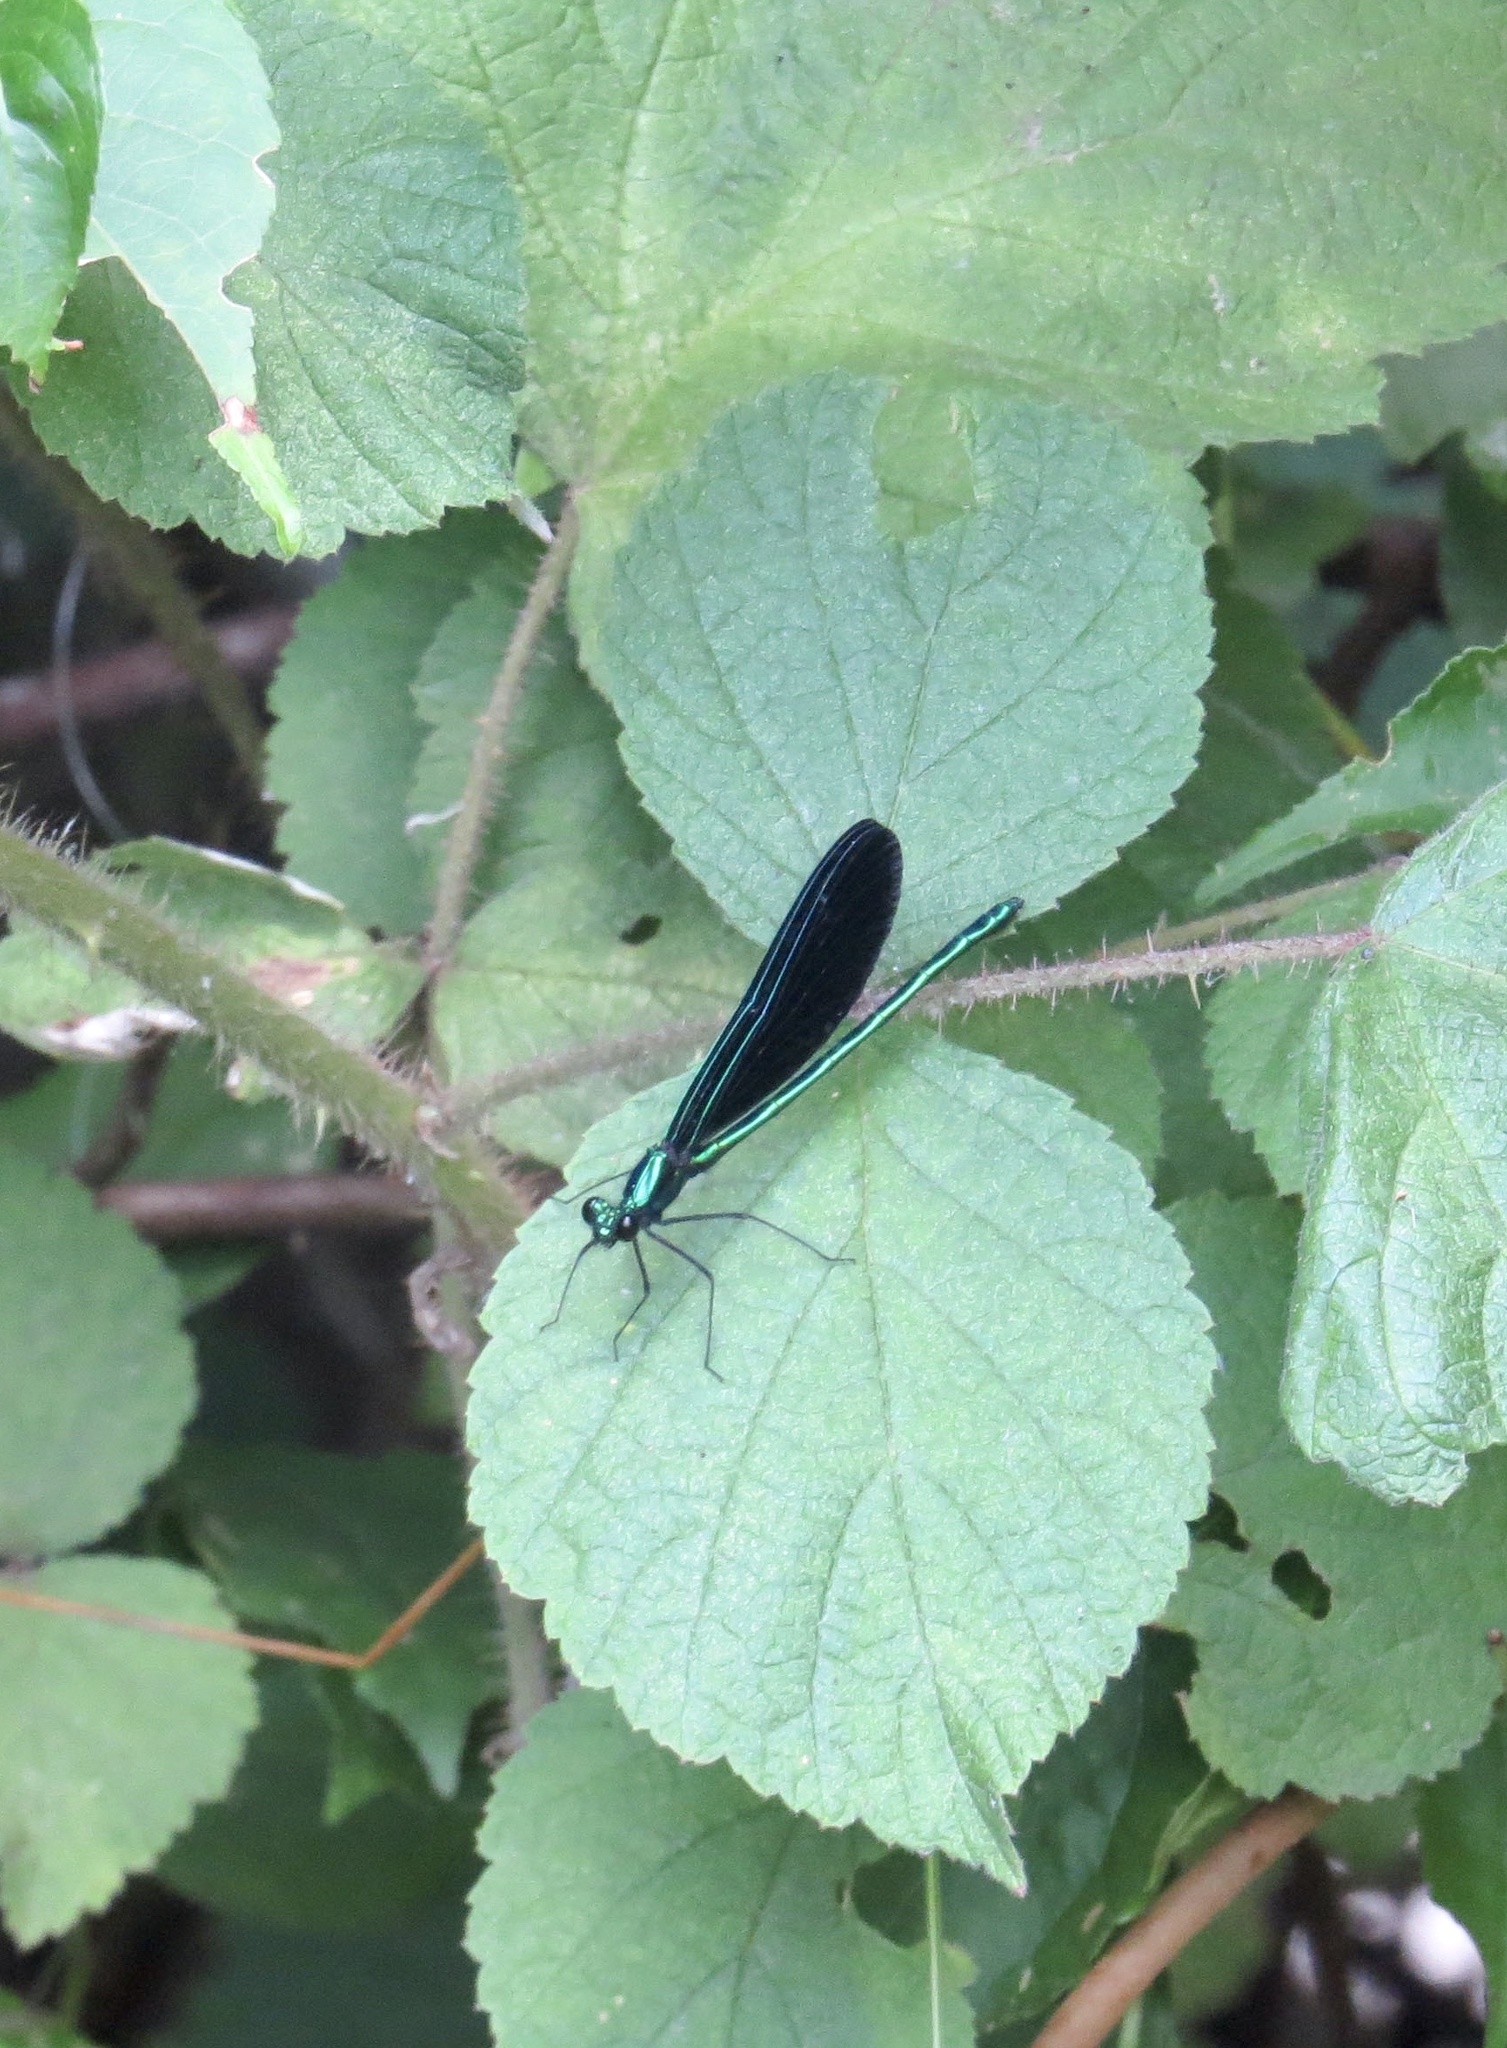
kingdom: Animalia
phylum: Arthropoda
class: Insecta
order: Odonata
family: Calopterygidae
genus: Calopteryx
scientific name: Calopteryx maculata
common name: Ebony jewelwing
